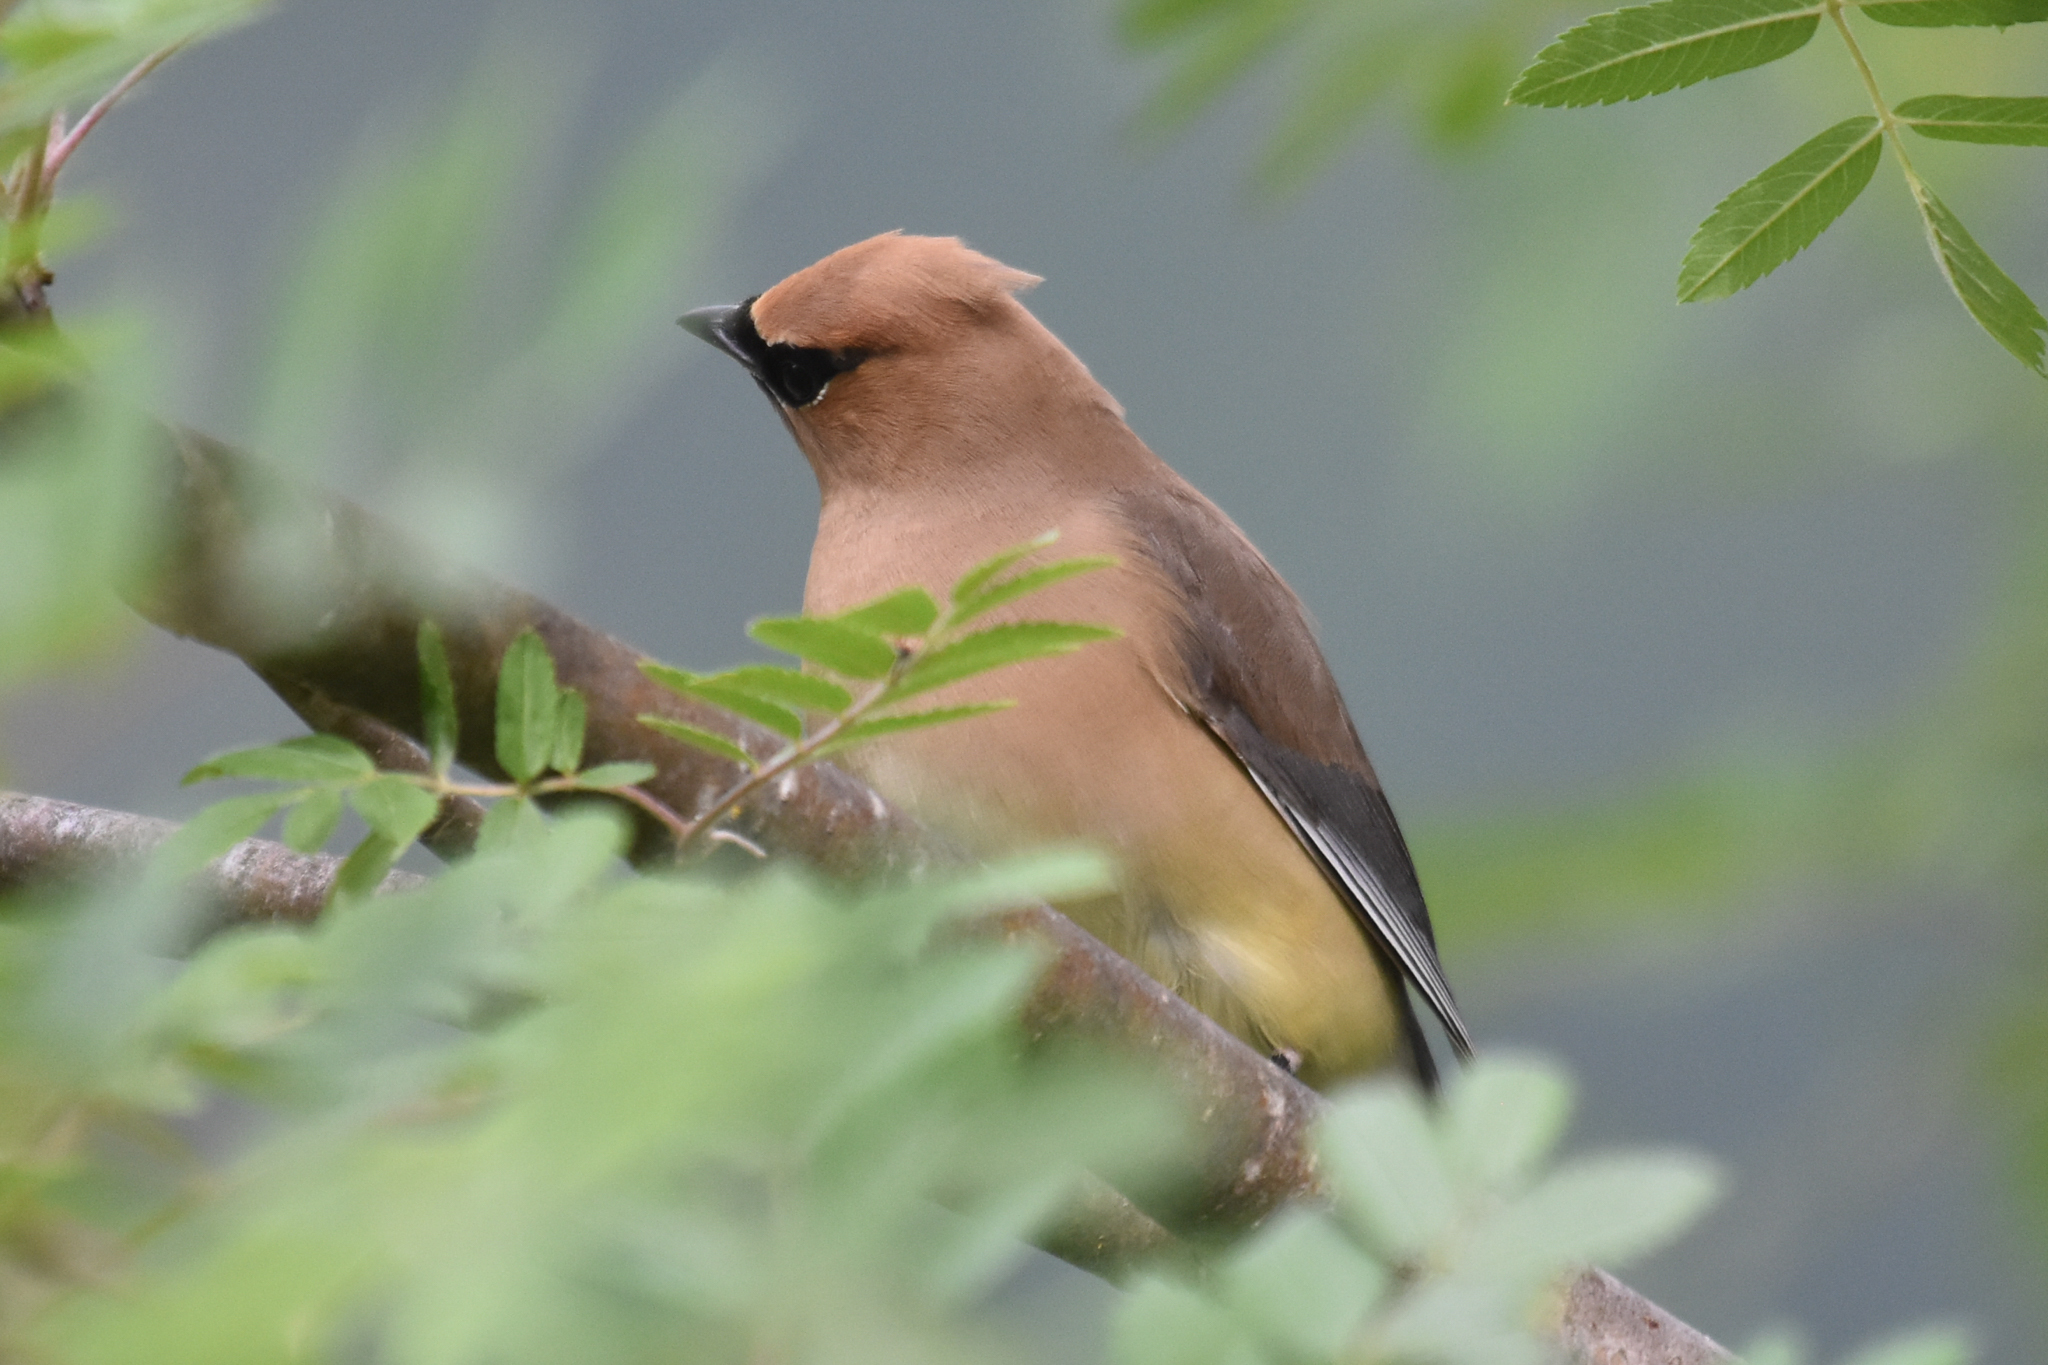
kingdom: Animalia
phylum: Chordata
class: Aves
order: Passeriformes
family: Bombycillidae
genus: Bombycilla
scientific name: Bombycilla cedrorum
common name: Cedar waxwing
